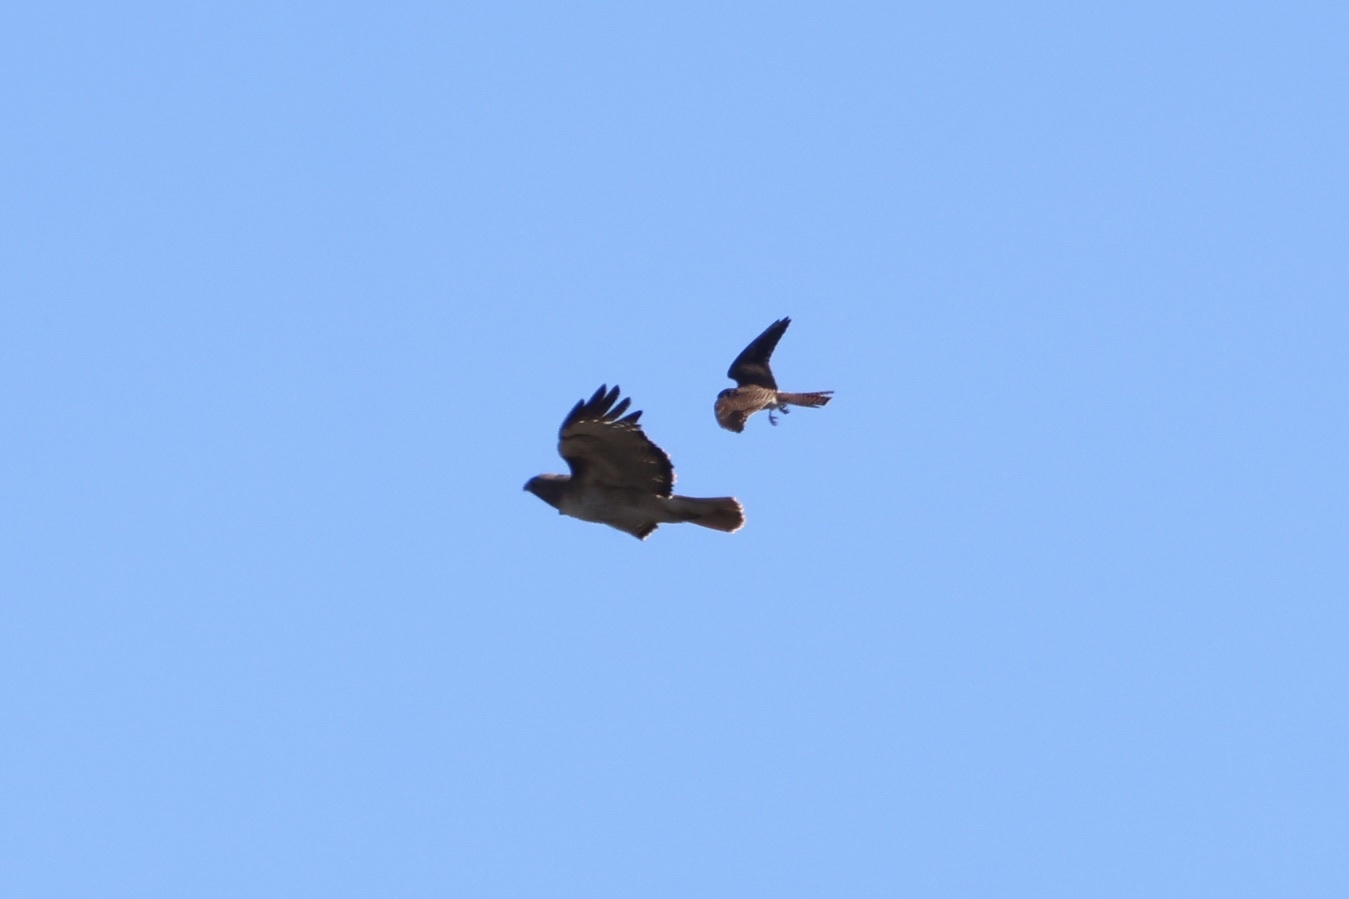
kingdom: Animalia
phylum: Chordata
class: Aves
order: Falconiformes
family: Falconidae
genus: Falco
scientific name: Falco sparverius
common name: American kestrel
